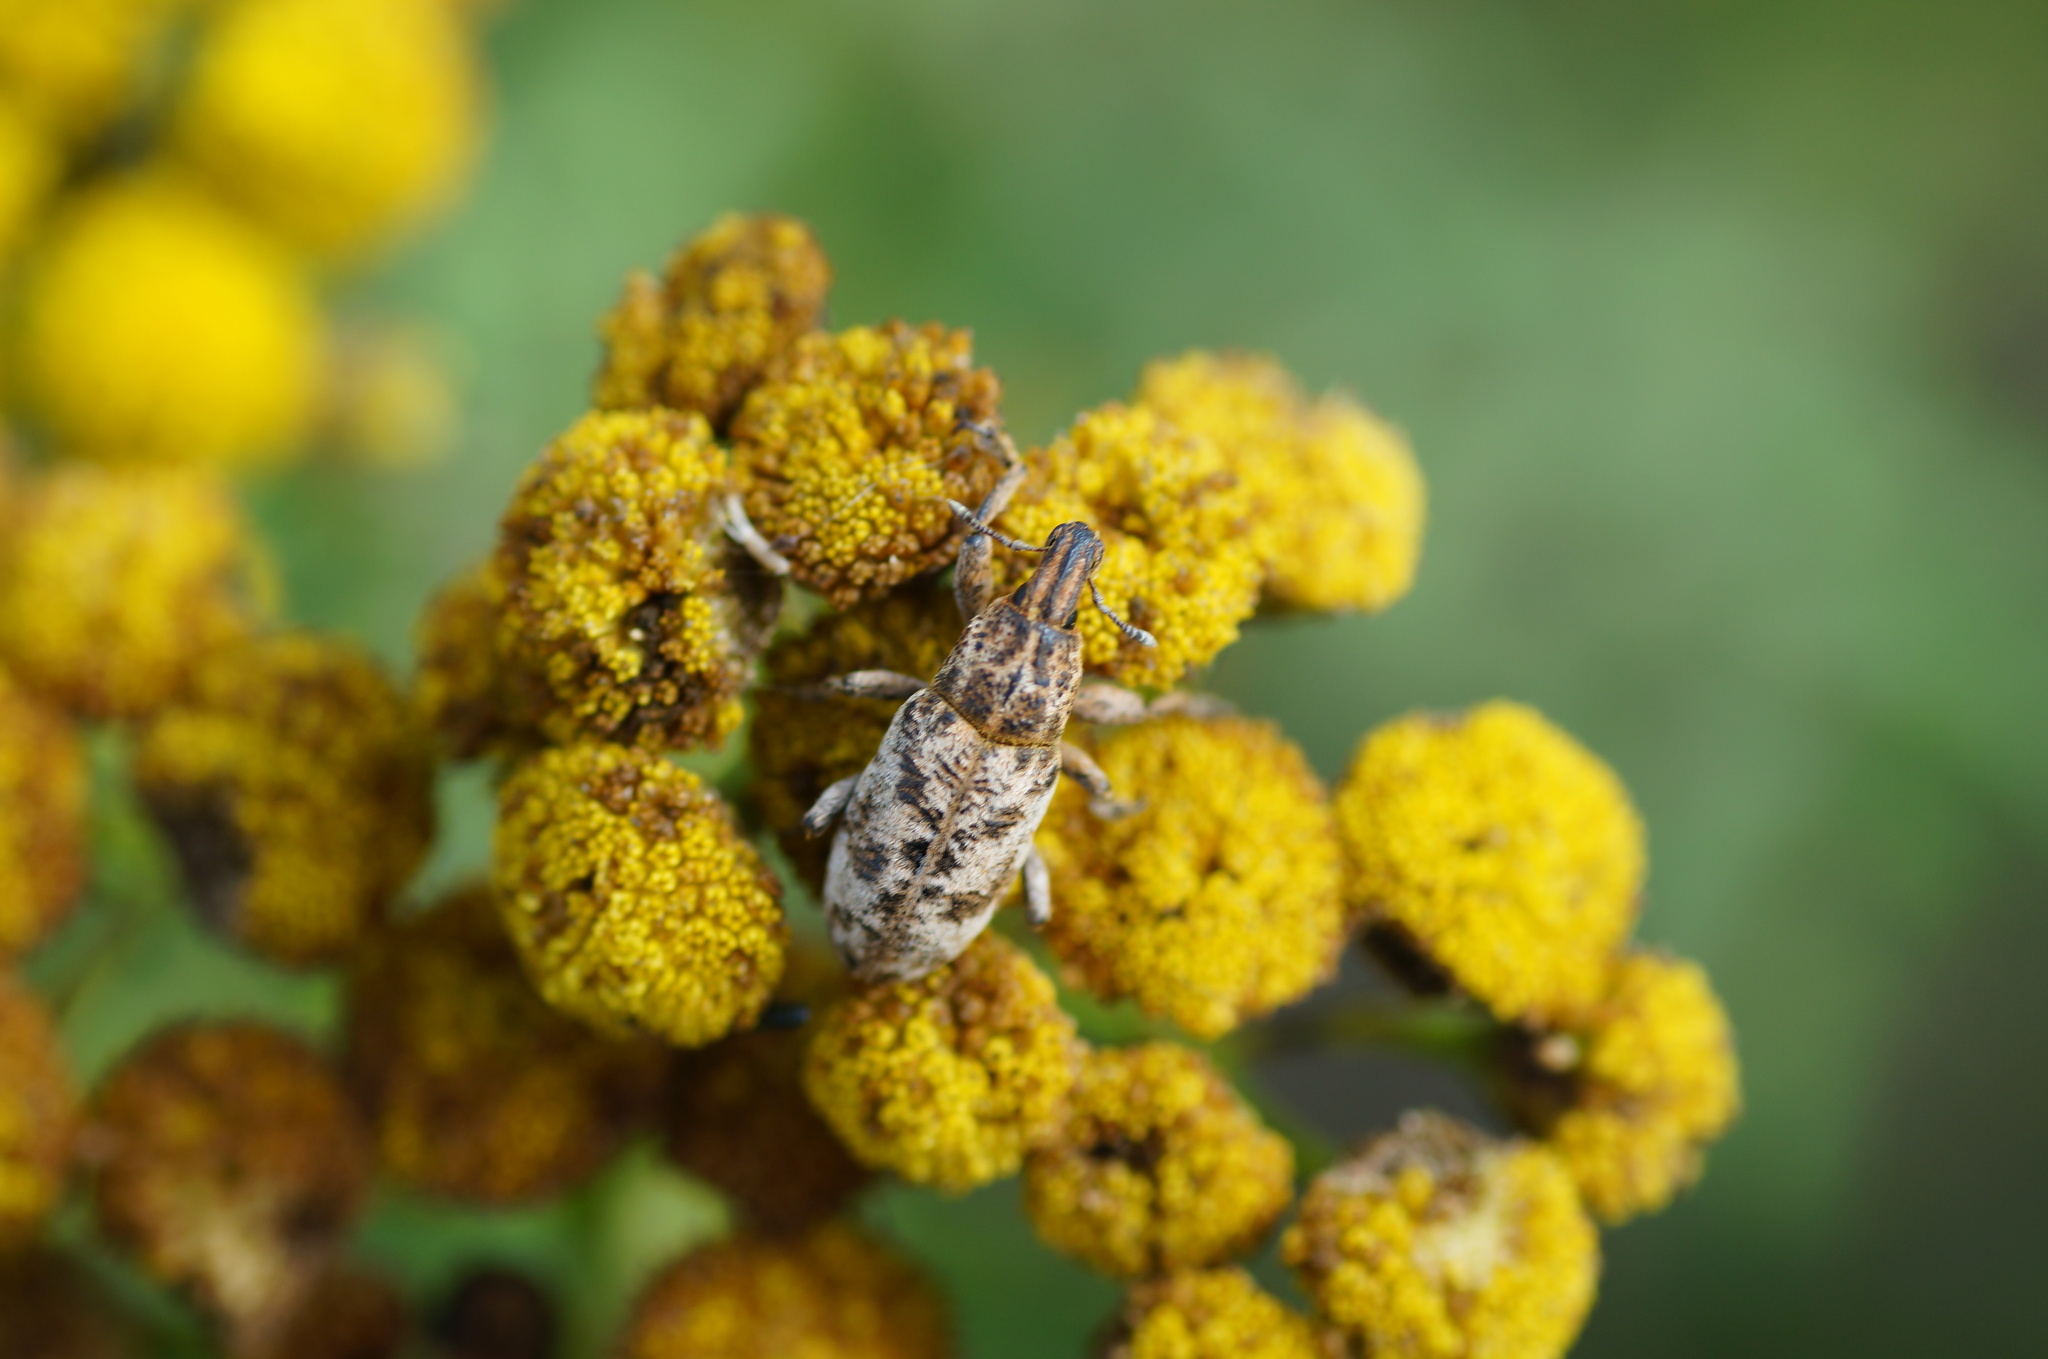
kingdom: Animalia
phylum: Arthropoda
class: Insecta
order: Coleoptera
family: Curculionidae
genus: Cyphocleonus
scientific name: Cyphocleonus dealbatus
